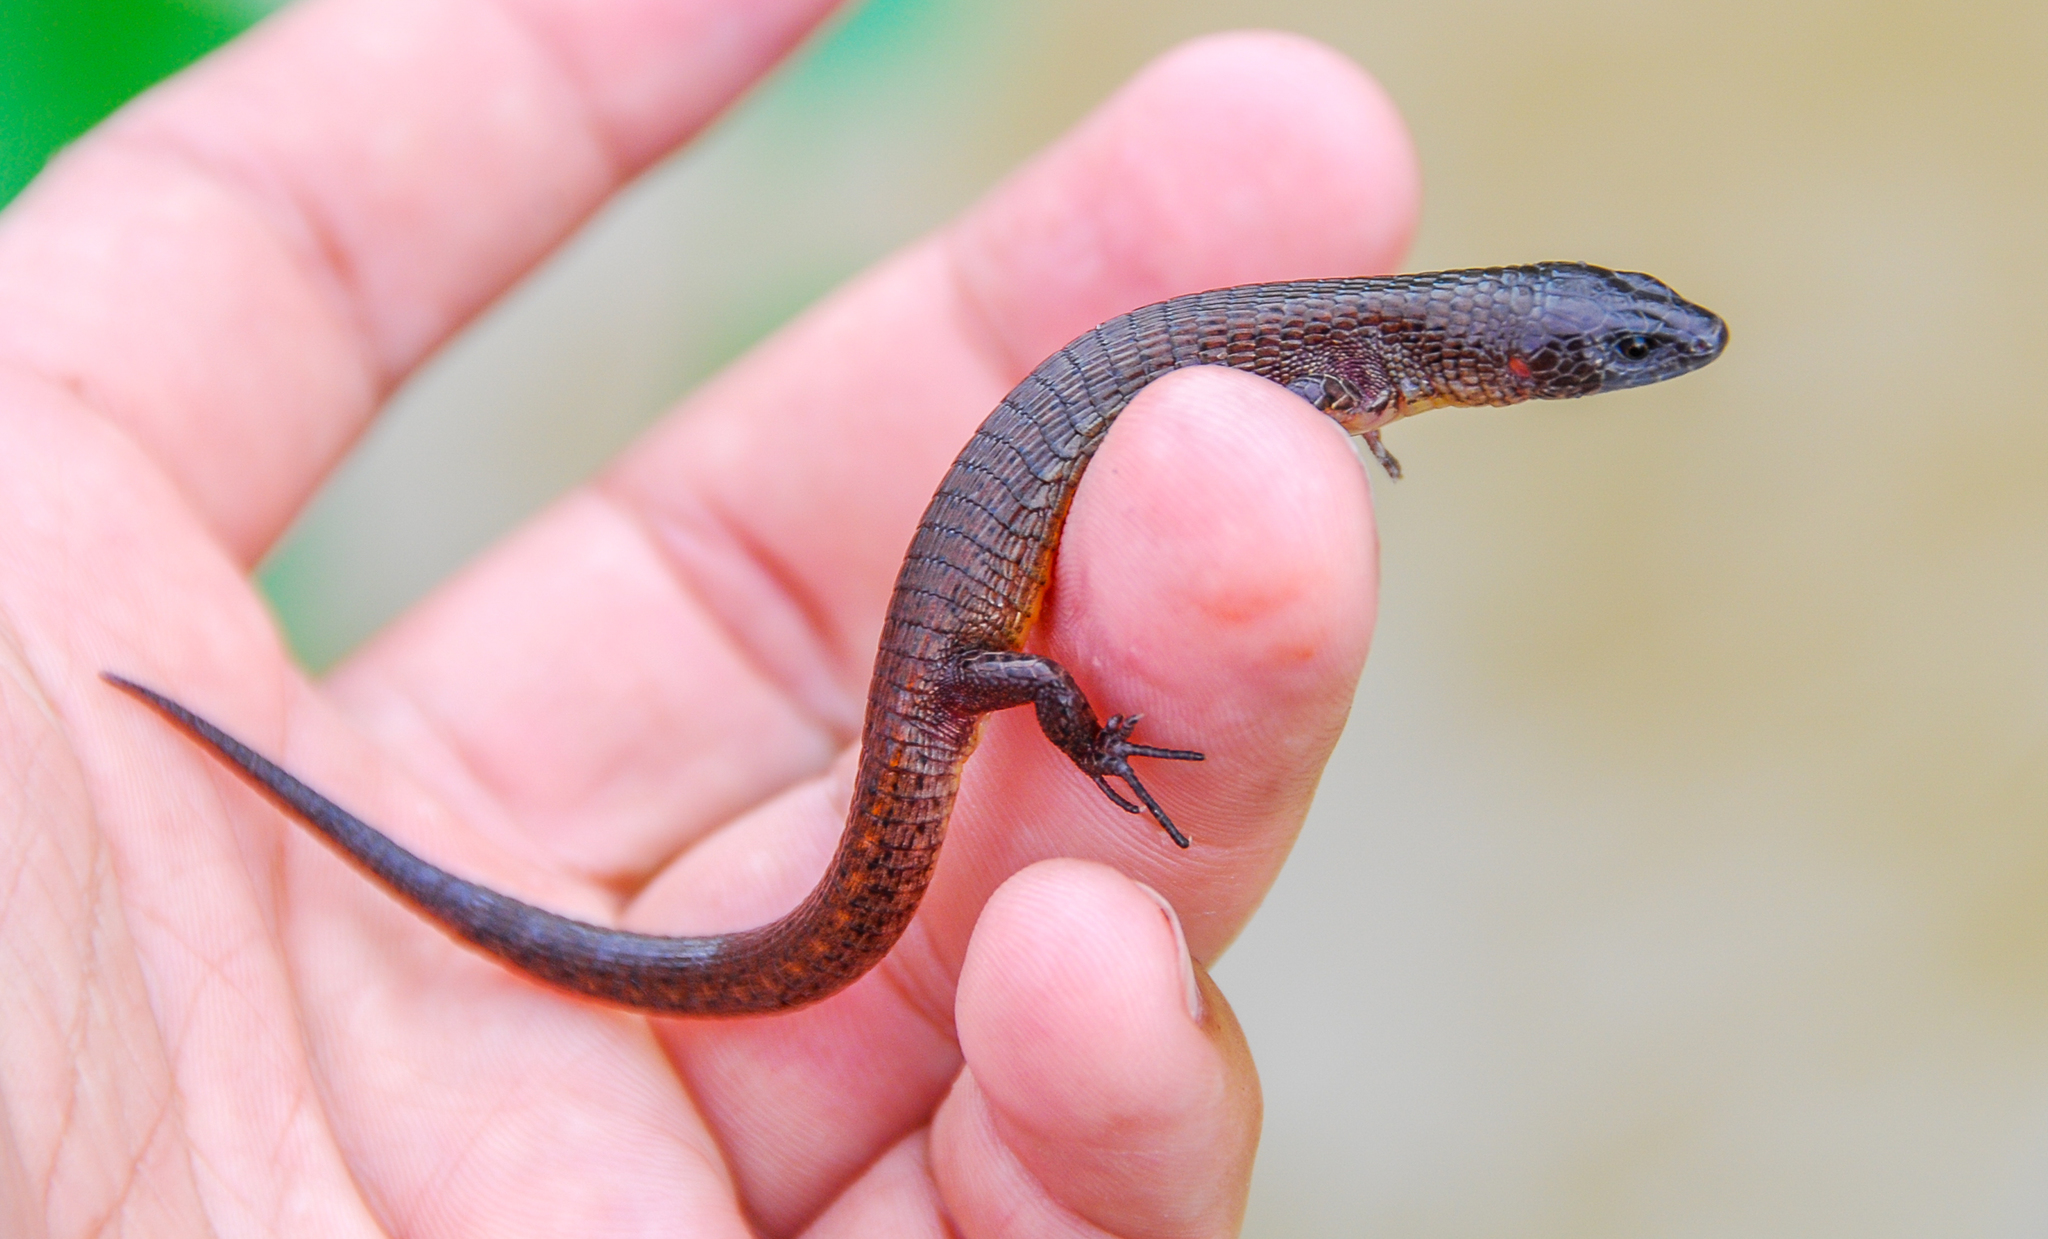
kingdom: Animalia
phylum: Chordata
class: Squamata
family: Alopoglossidae
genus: Alopoglossus
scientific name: Alopoglossus brevifrontalis
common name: Boulenger's largescale lizard
